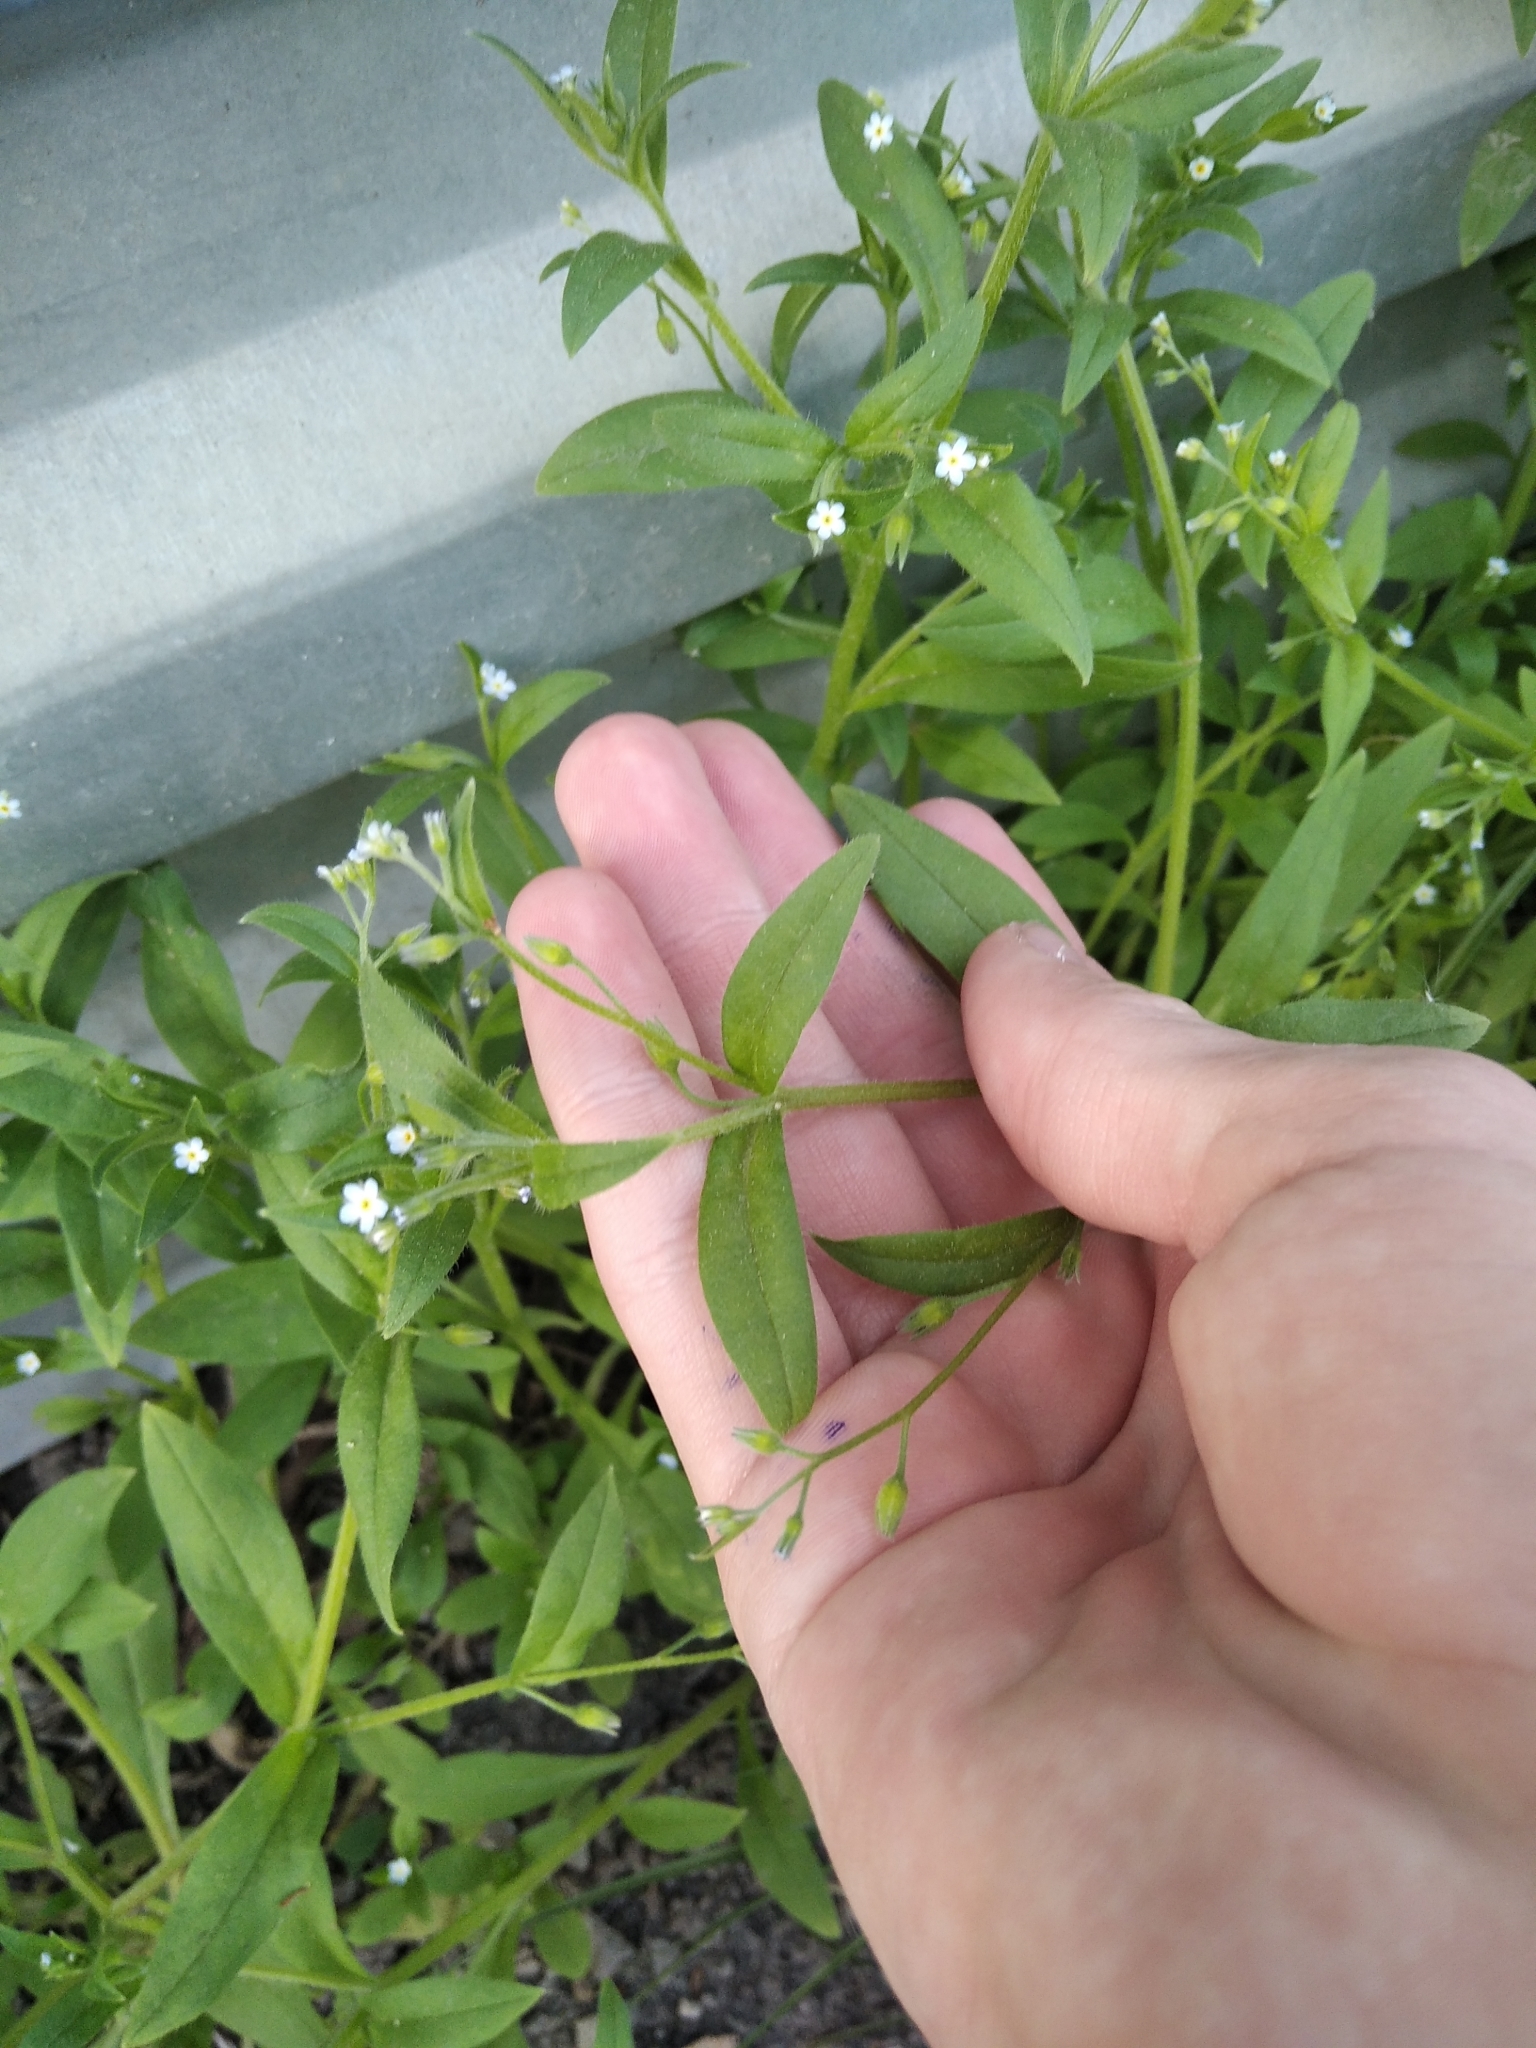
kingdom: Plantae
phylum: Tracheophyta
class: Magnoliopsida
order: Boraginales
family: Boraginaceae
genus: Myosotis
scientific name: Myosotis sparsiflora
